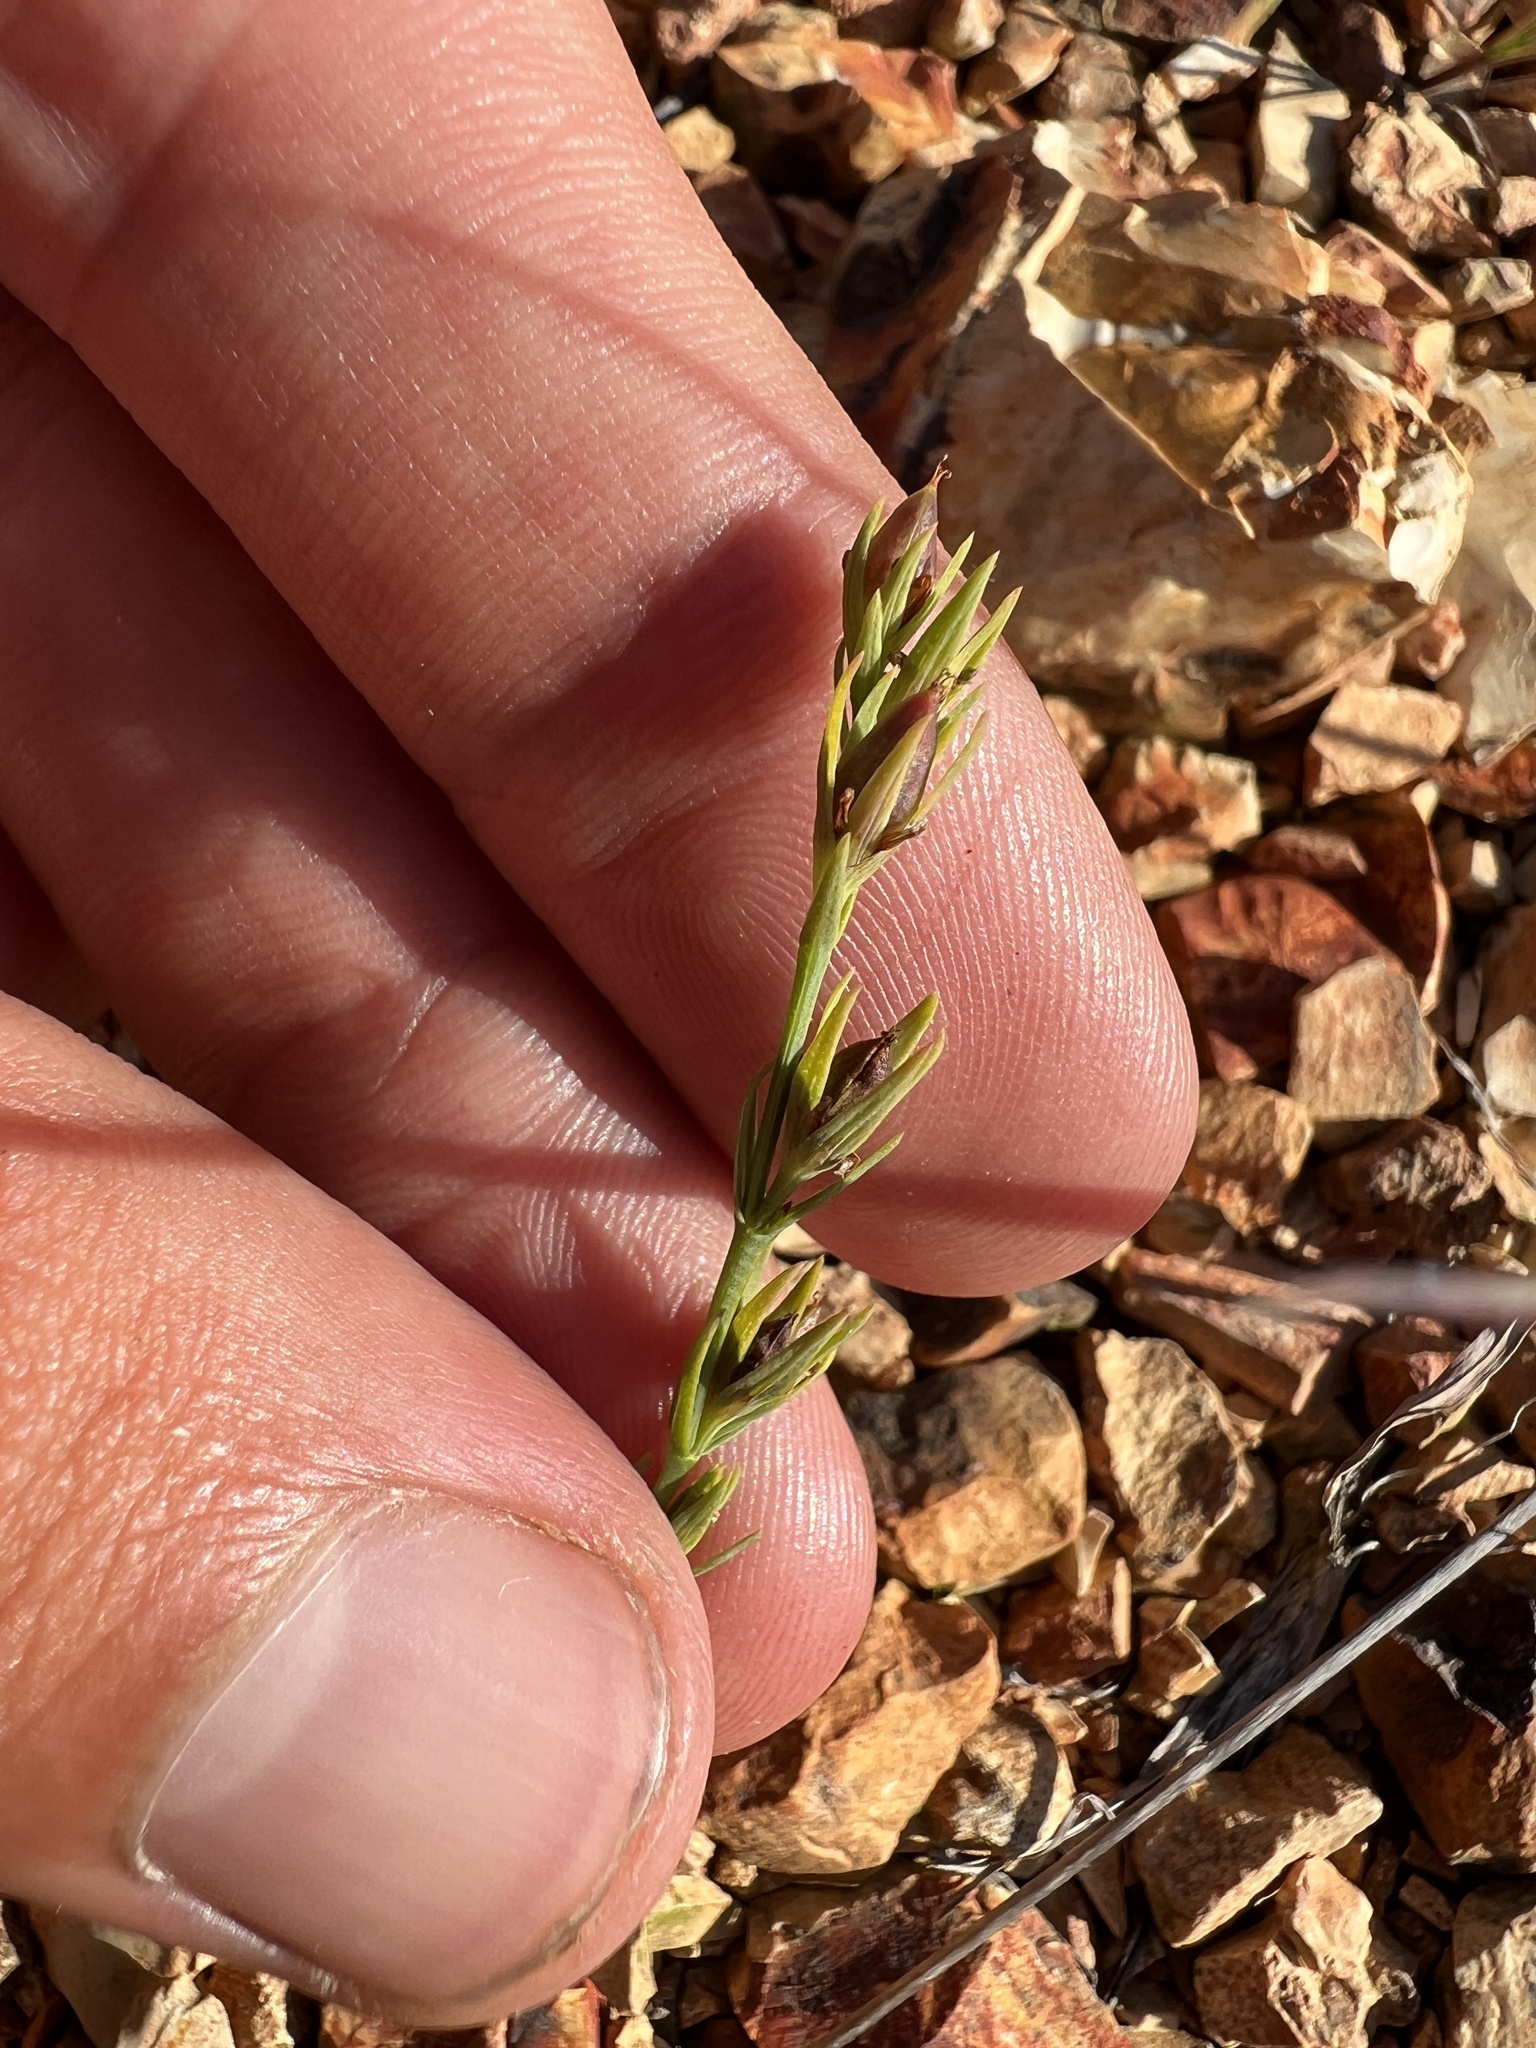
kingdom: Plantae
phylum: Tracheophyta
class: Magnoliopsida
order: Malpighiales
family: Hypericaceae
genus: Hypericum
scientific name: Hypericum gentianoides
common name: Gentian-leaved st. john's-wort
